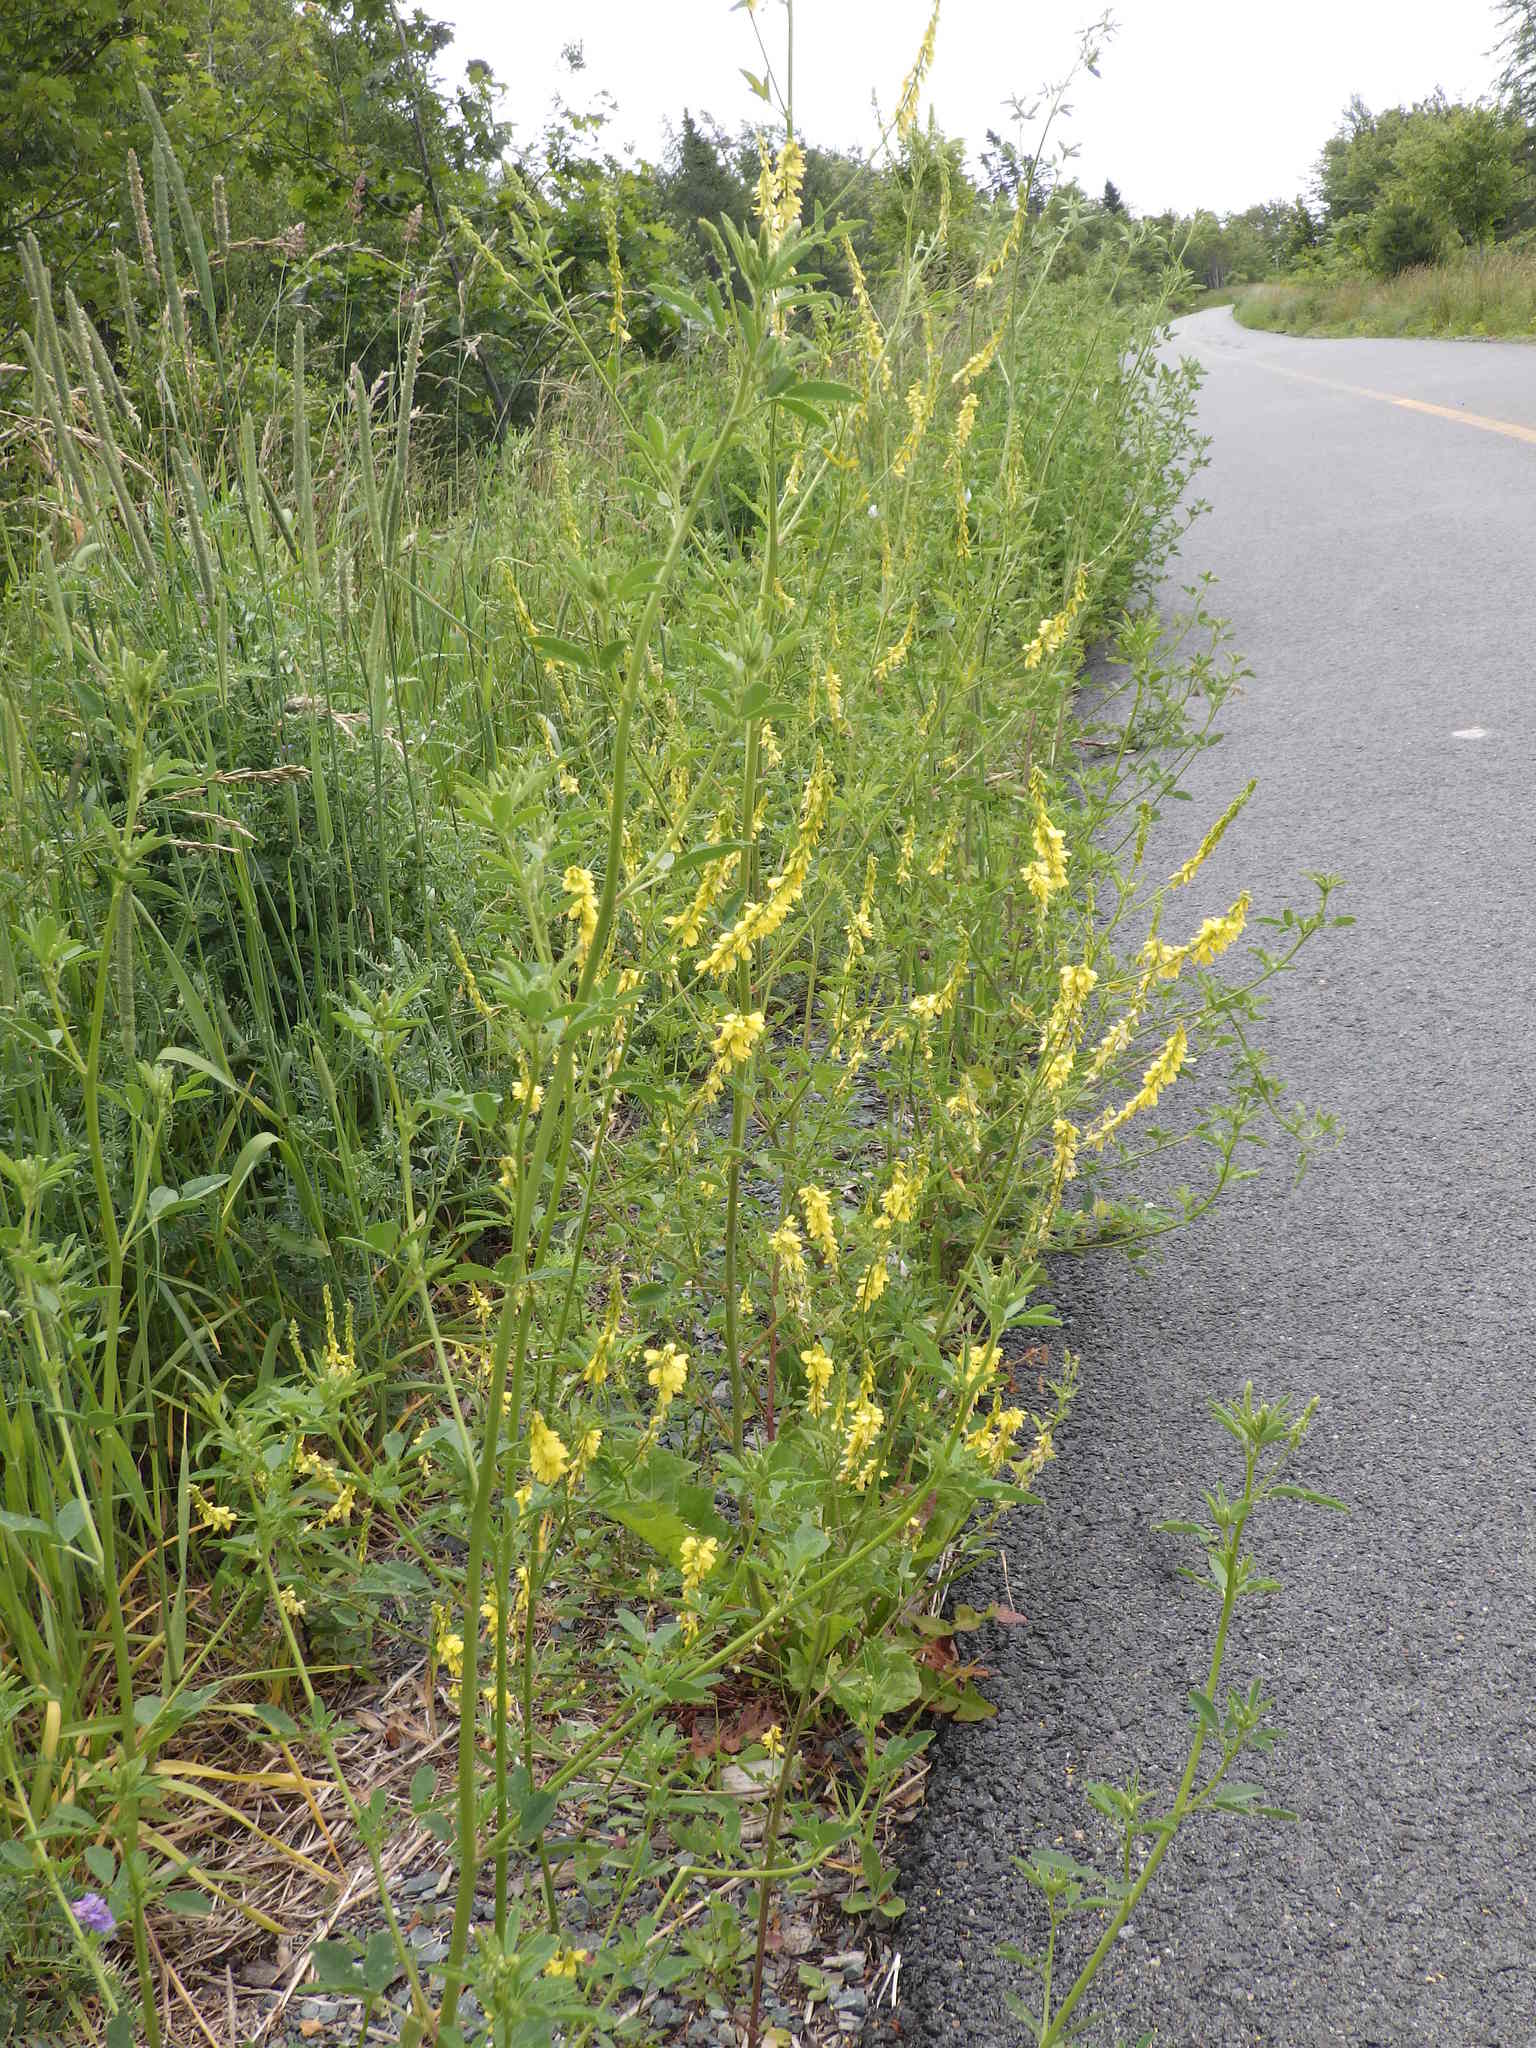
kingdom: Plantae
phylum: Tracheophyta
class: Magnoliopsida
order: Fabales
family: Fabaceae
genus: Melilotus
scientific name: Melilotus officinalis
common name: Sweetclover
